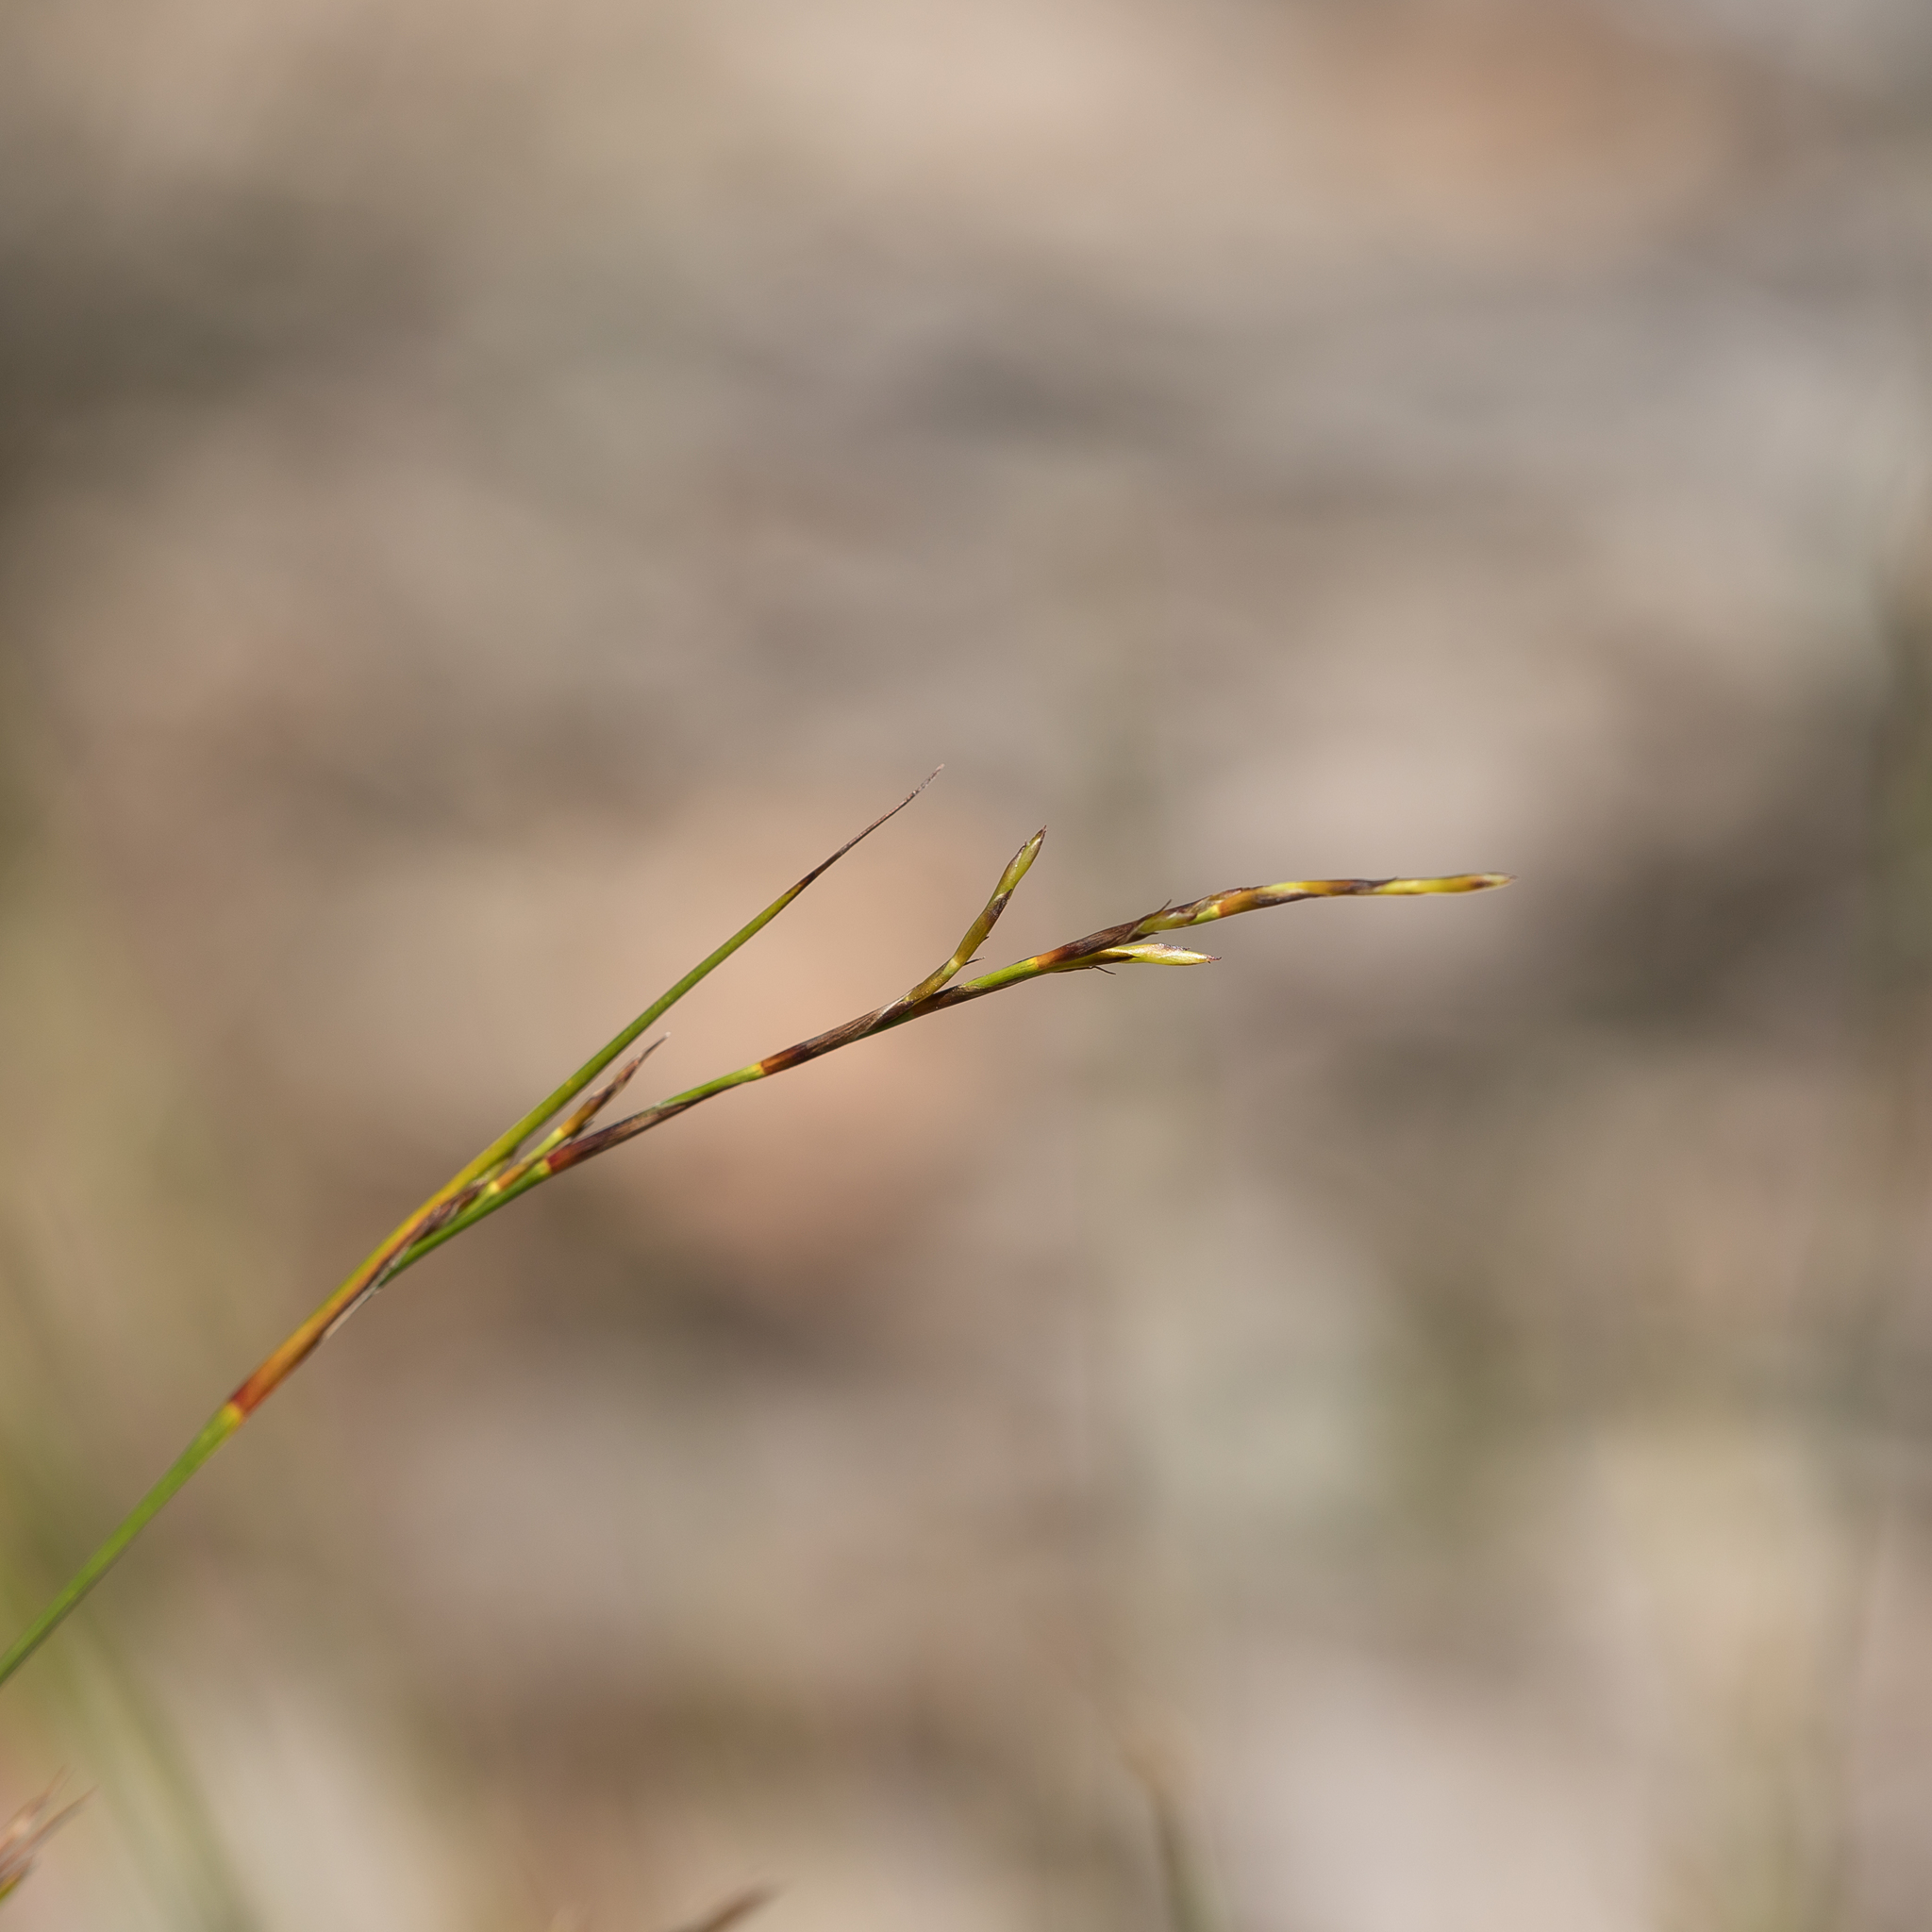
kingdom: Plantae
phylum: Tracheophyta
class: Liliopsida
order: Poales
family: Cyperaceae
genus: Lepidosperma
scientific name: Lepidosperma semiteres
